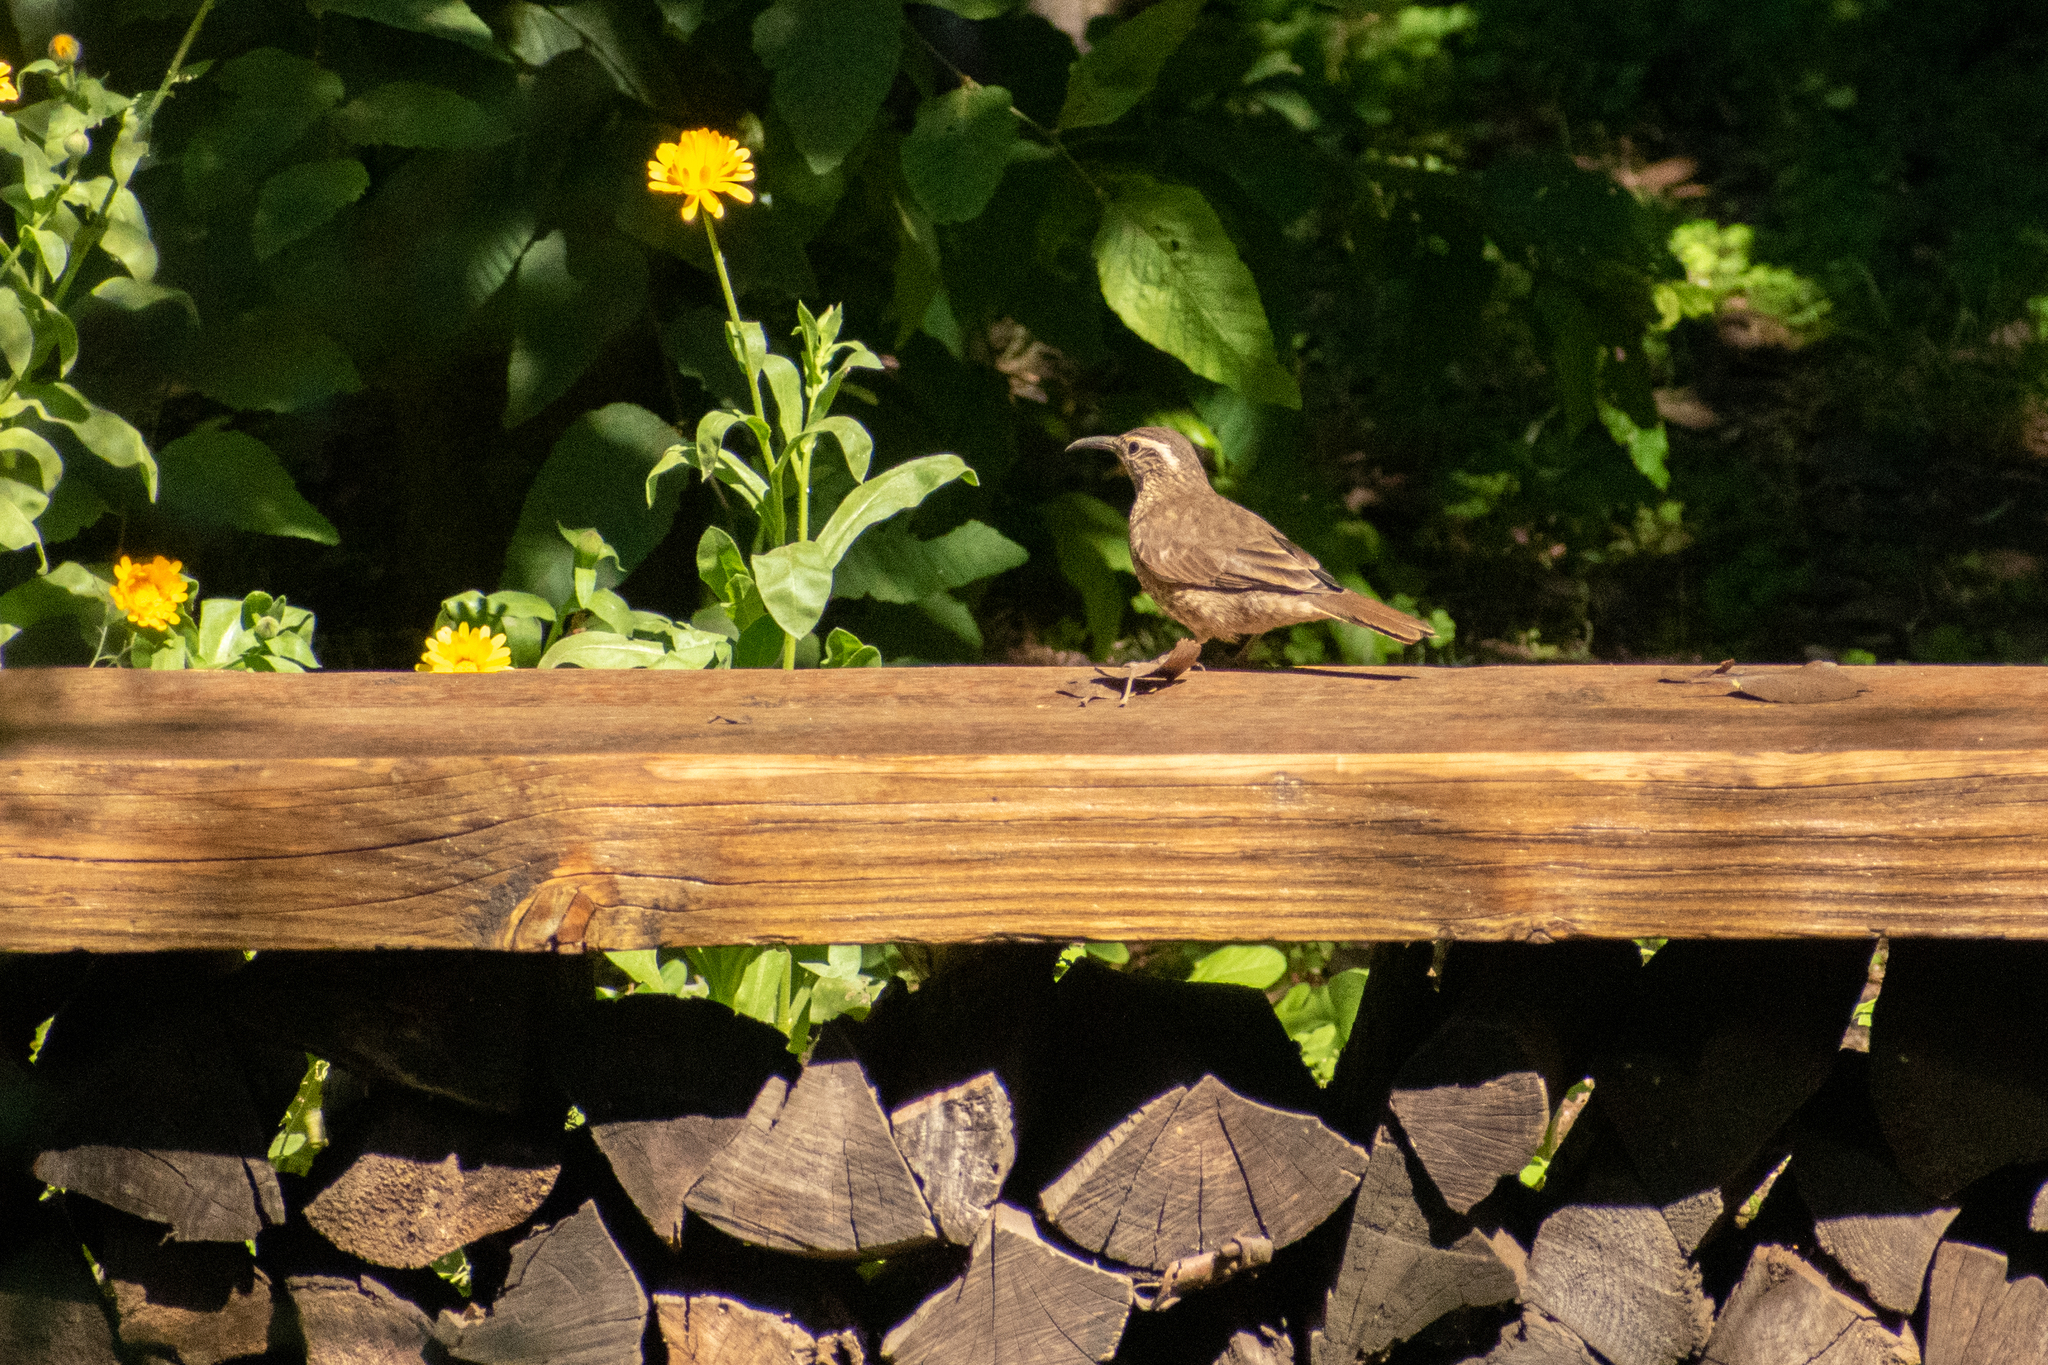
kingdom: Animalia
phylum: Chordata
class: Aves
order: Passeriformes
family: Furnariidae
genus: Upucerthia
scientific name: Upucerthia saturatior
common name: Patagonian forest earthcreeper
